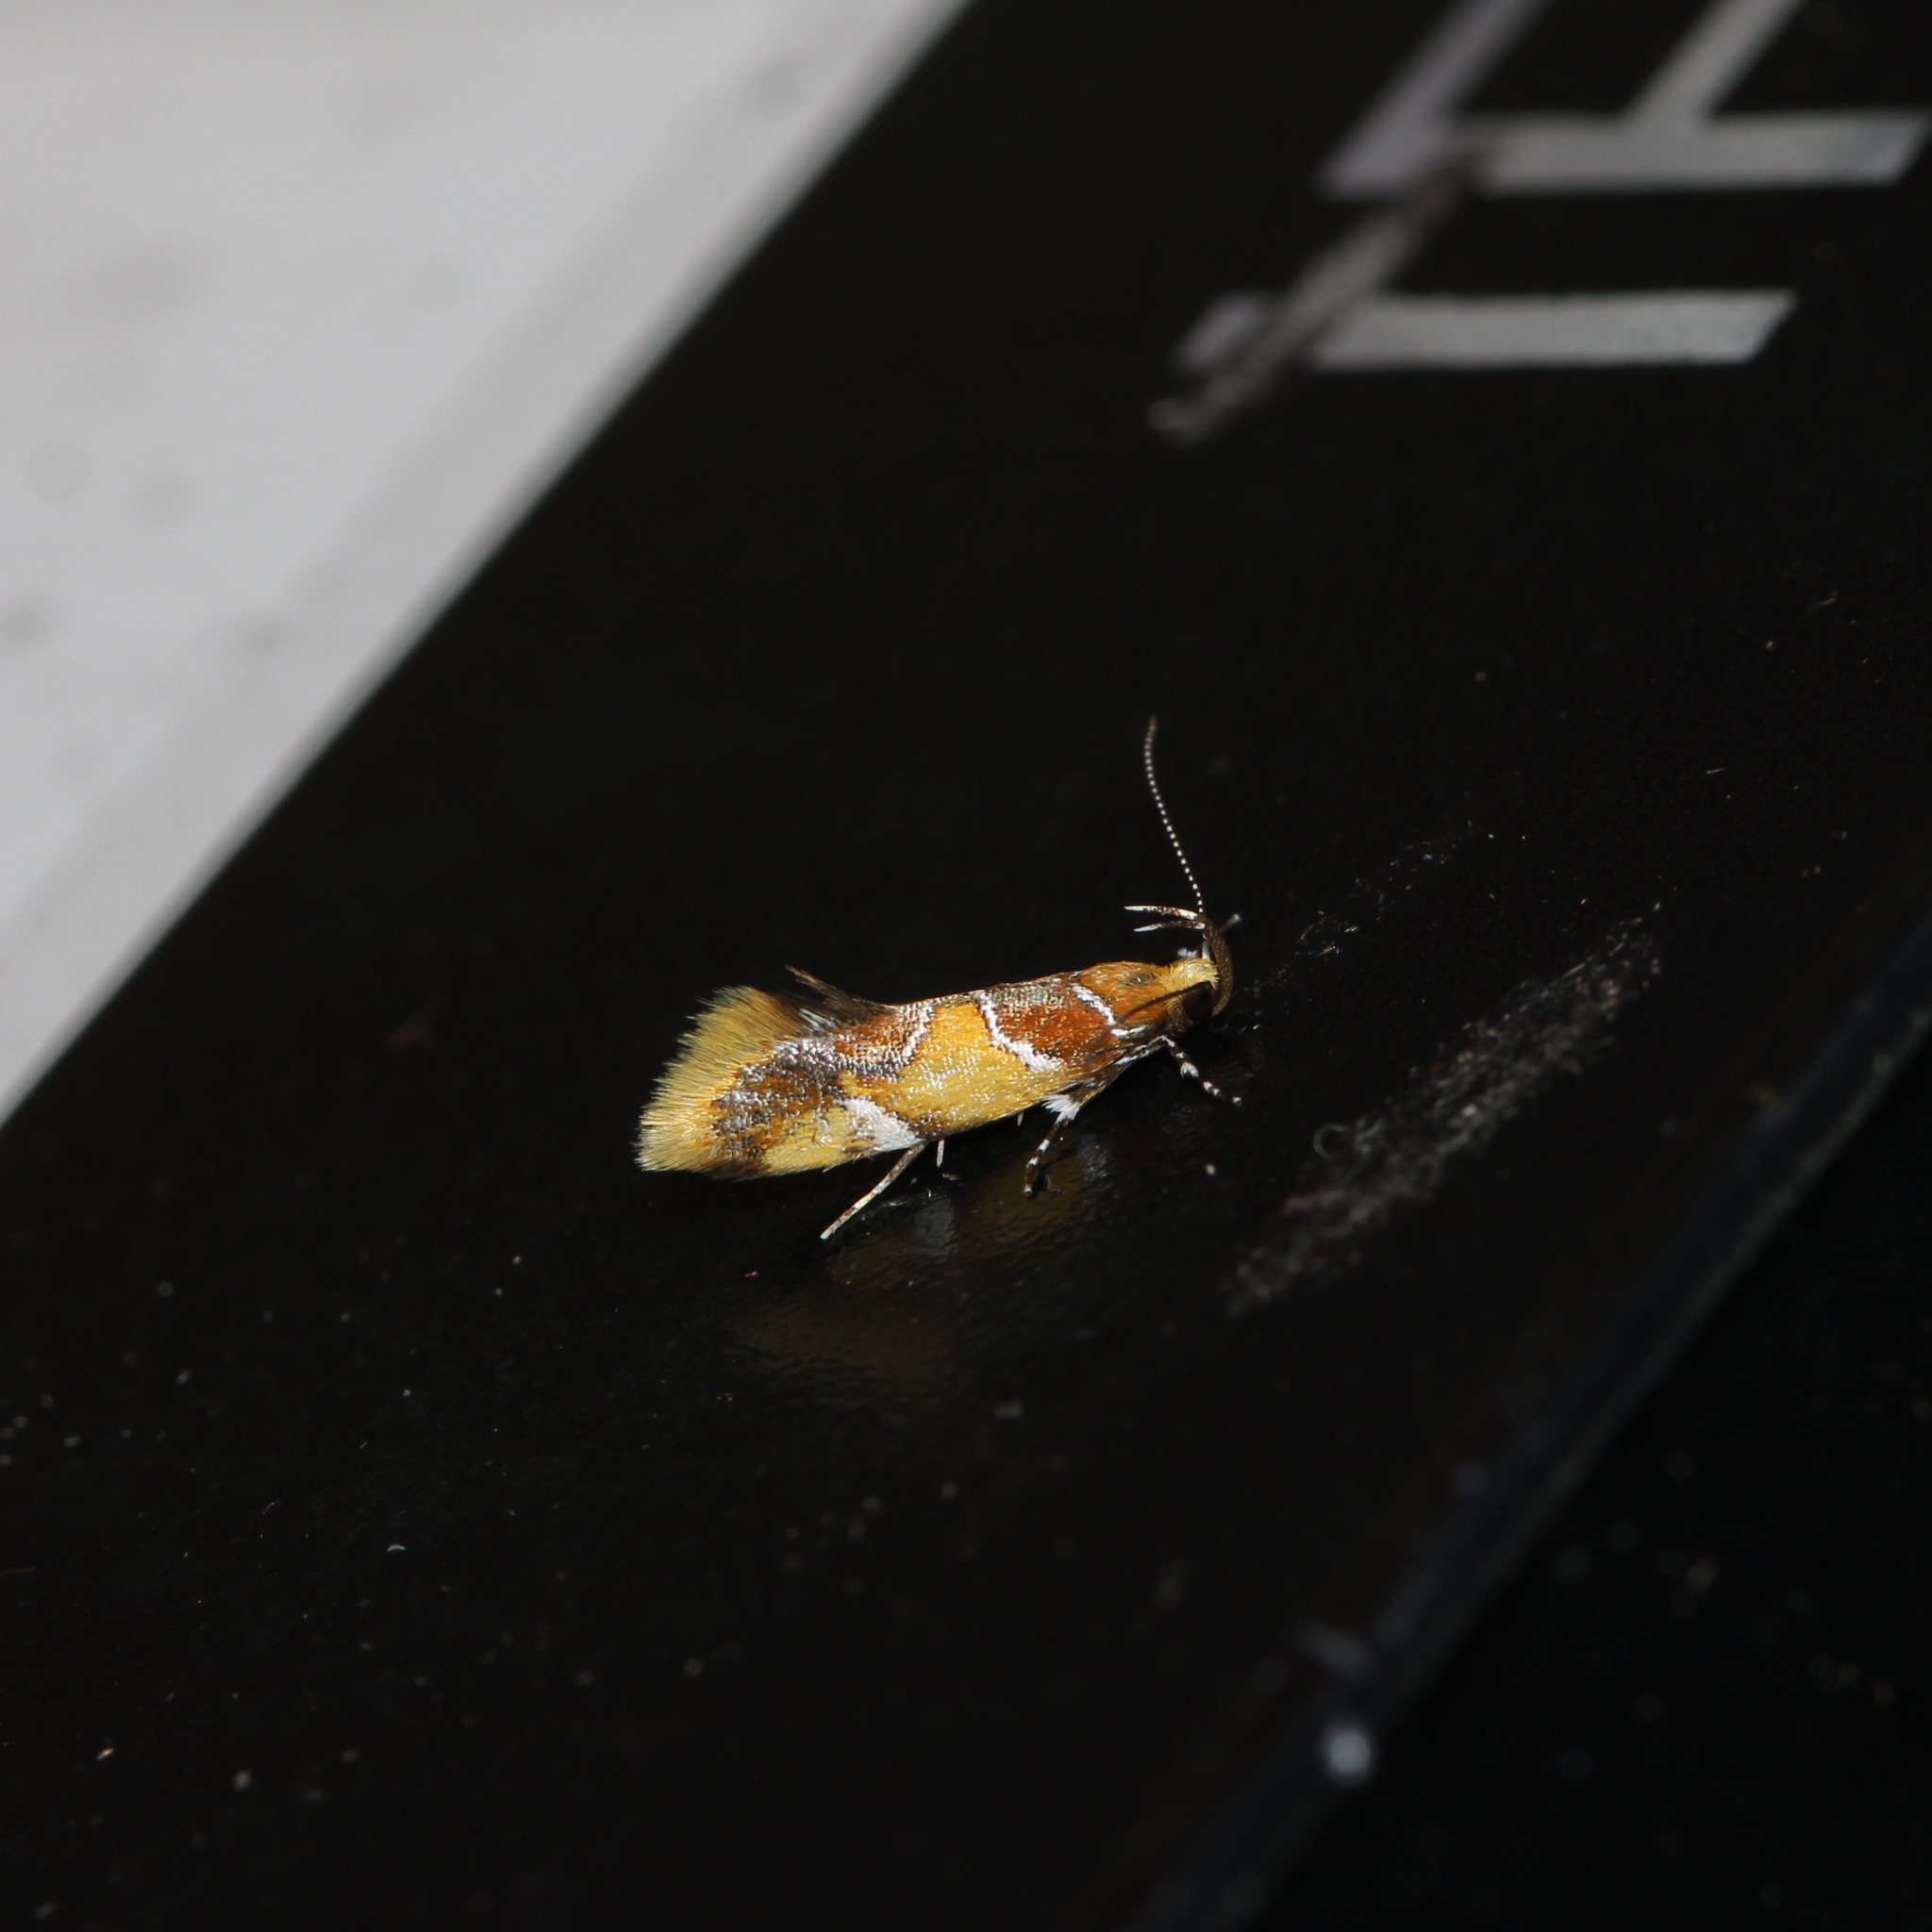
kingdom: Animalia
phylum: Arthropoda
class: Insecta
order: Lepidoptera
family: Oecophoridae
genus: Callima
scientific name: Callima argenticinctella
